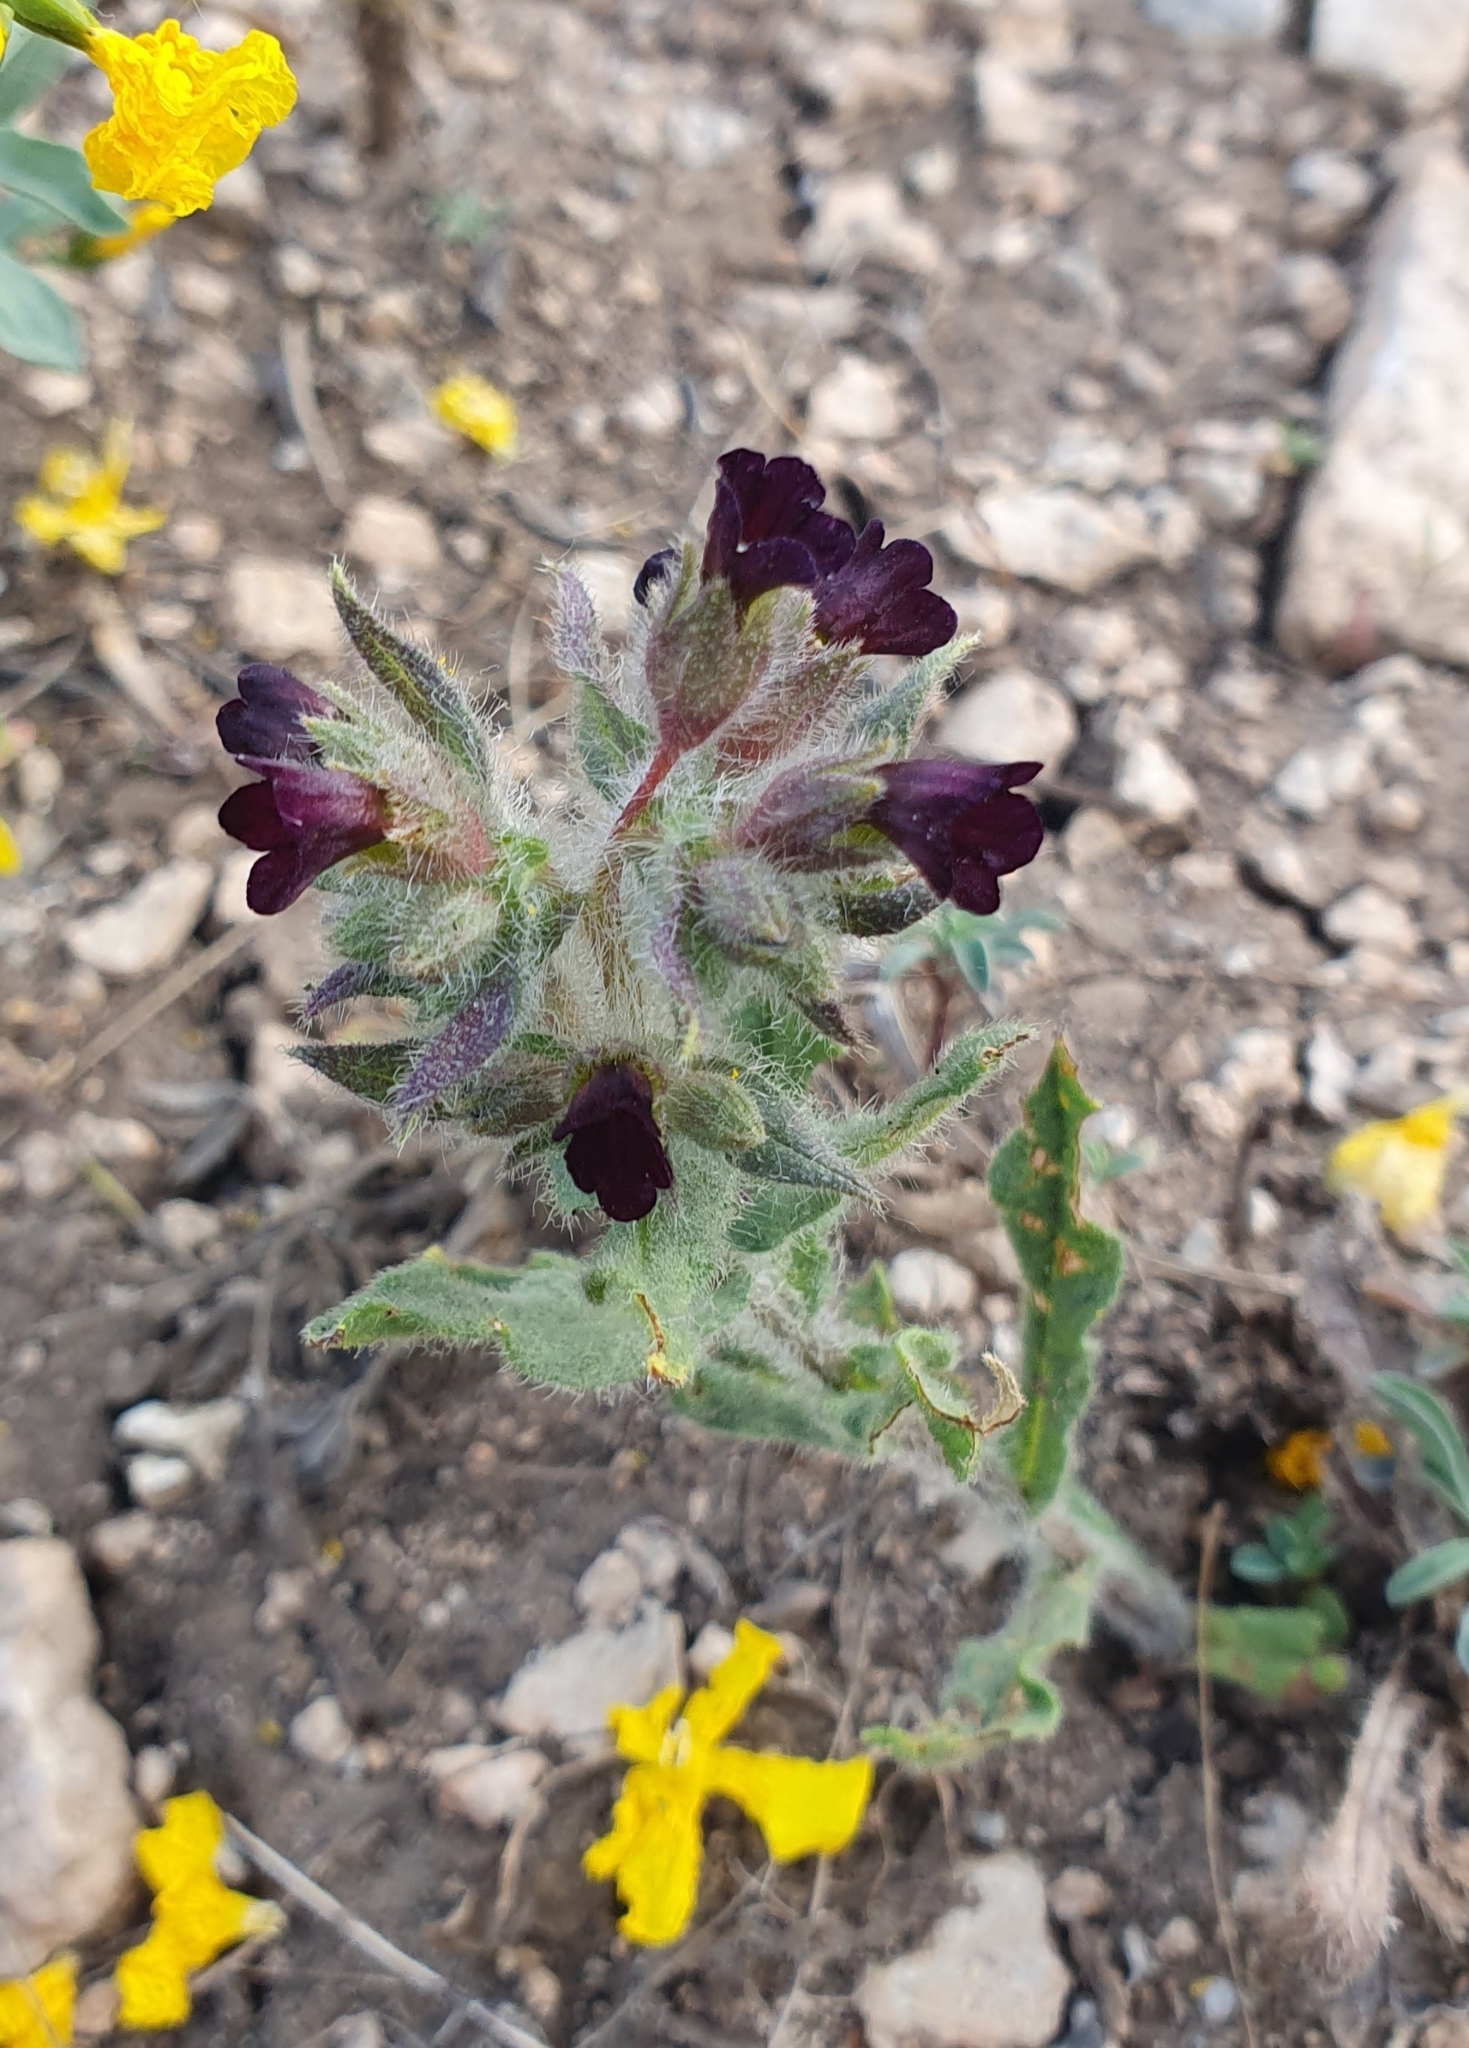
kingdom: Plantae
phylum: Tracheophyta
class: Magnoliopsida
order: Boraginales
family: Boraginaceae
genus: Nonea
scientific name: Nonea pulla
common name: Brown nonea
